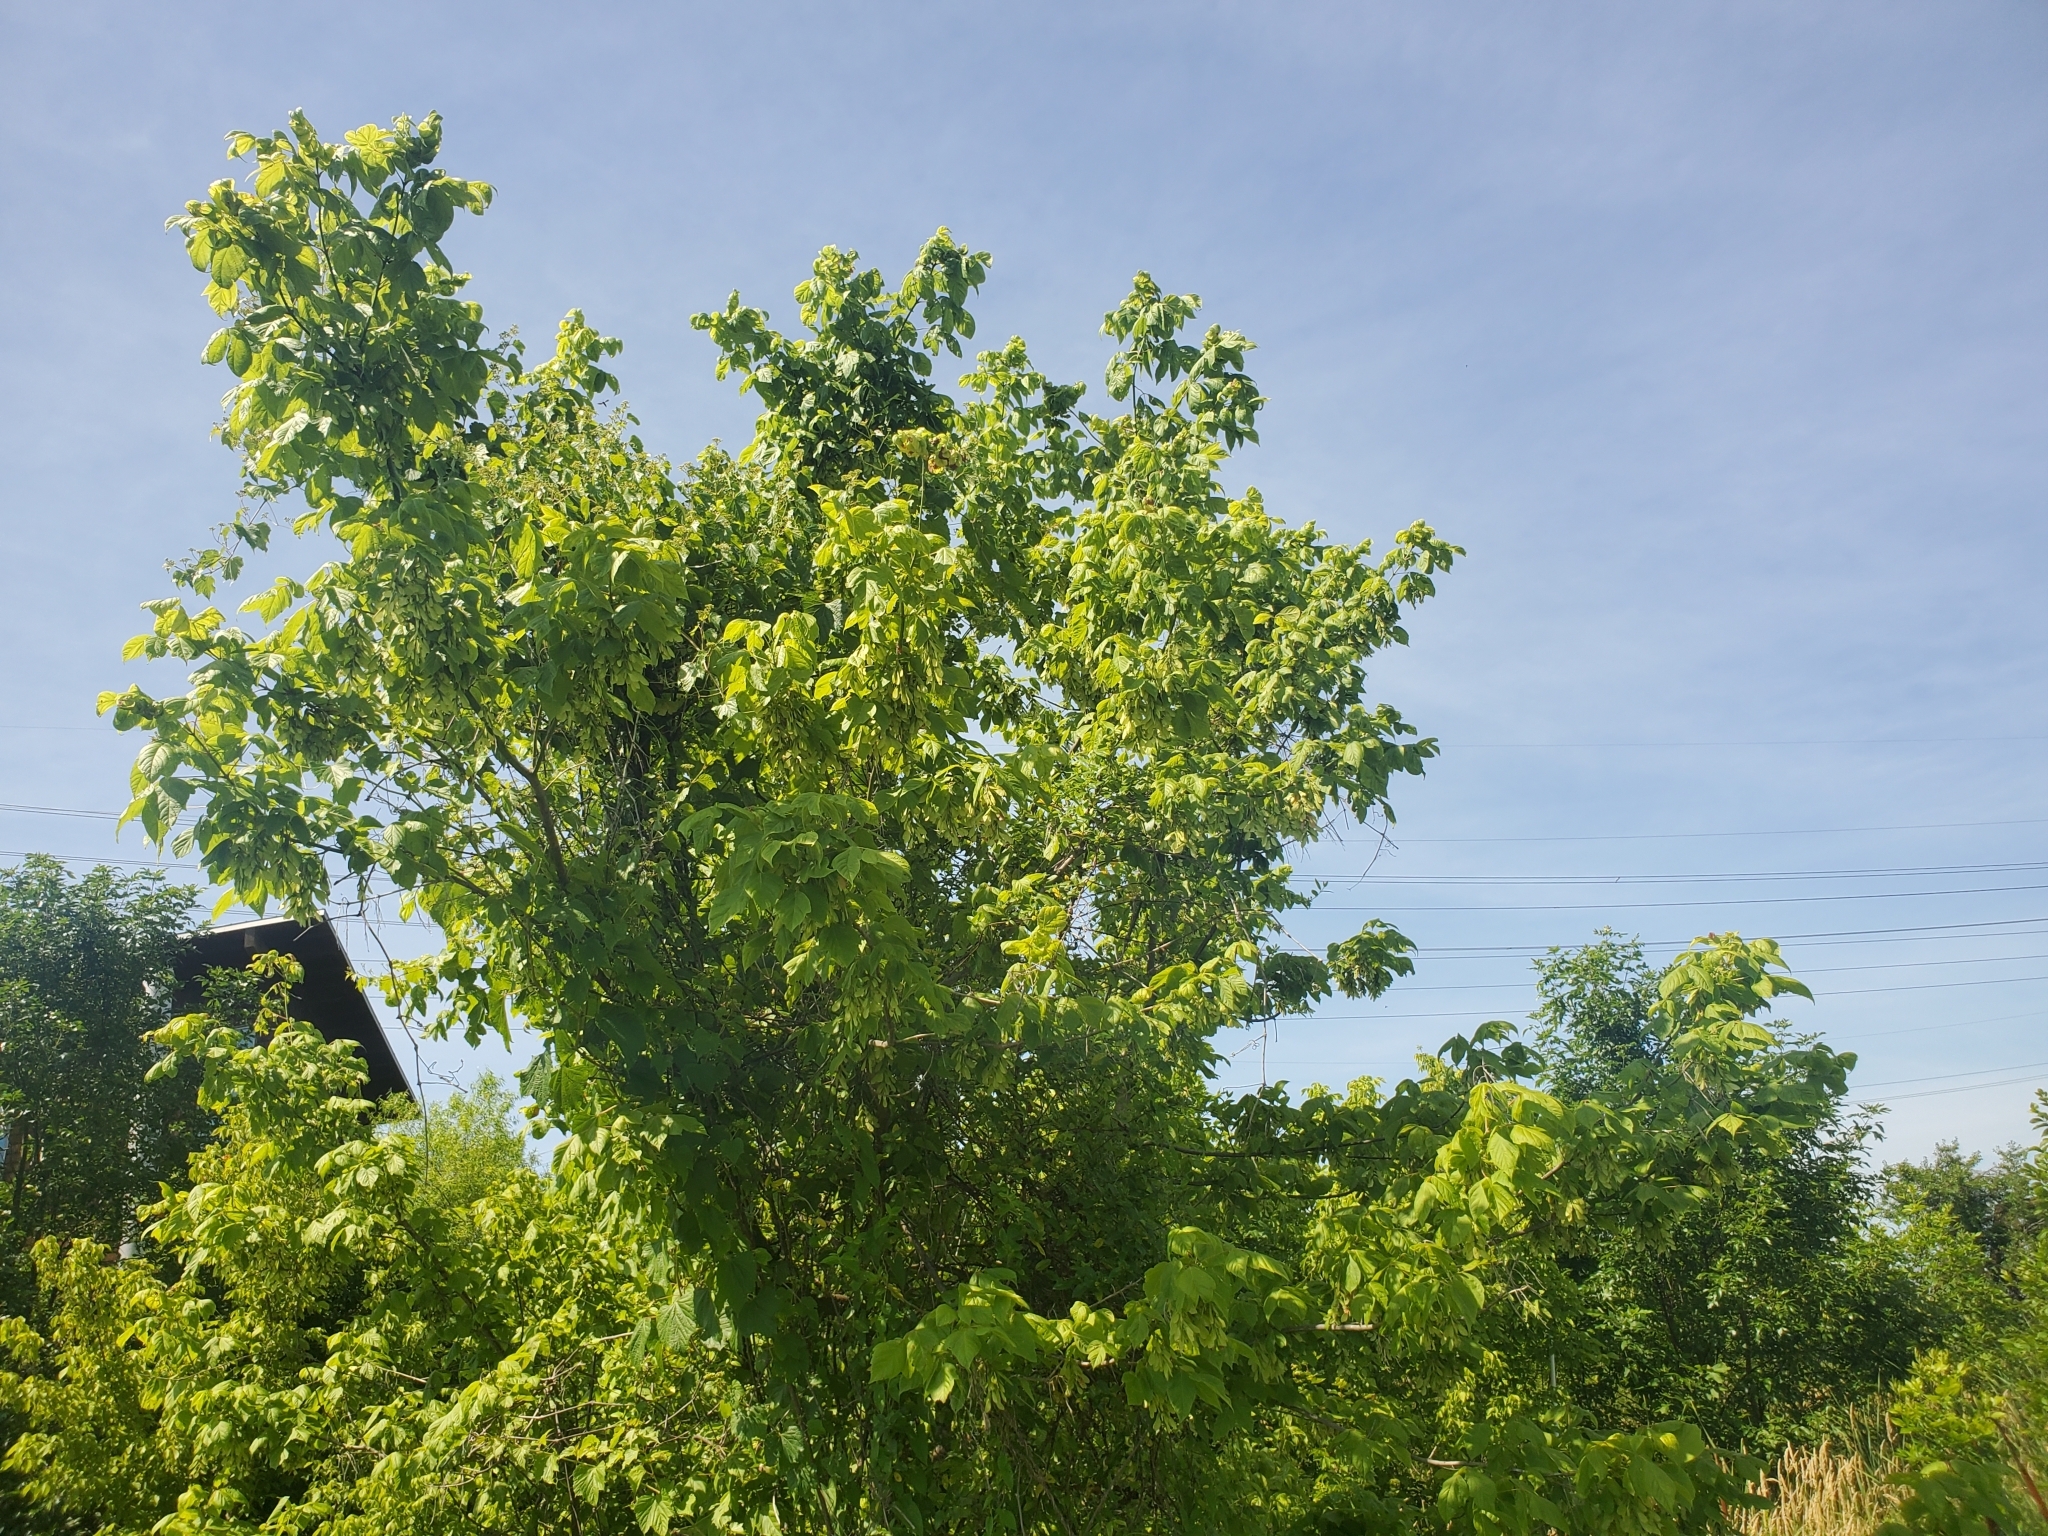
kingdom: Plantae
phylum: Tracheophyta
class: Magnoliopsida
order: Sapindales
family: Sapindaceae
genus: Acer
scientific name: Acer negundo
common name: Ashleaf maple
